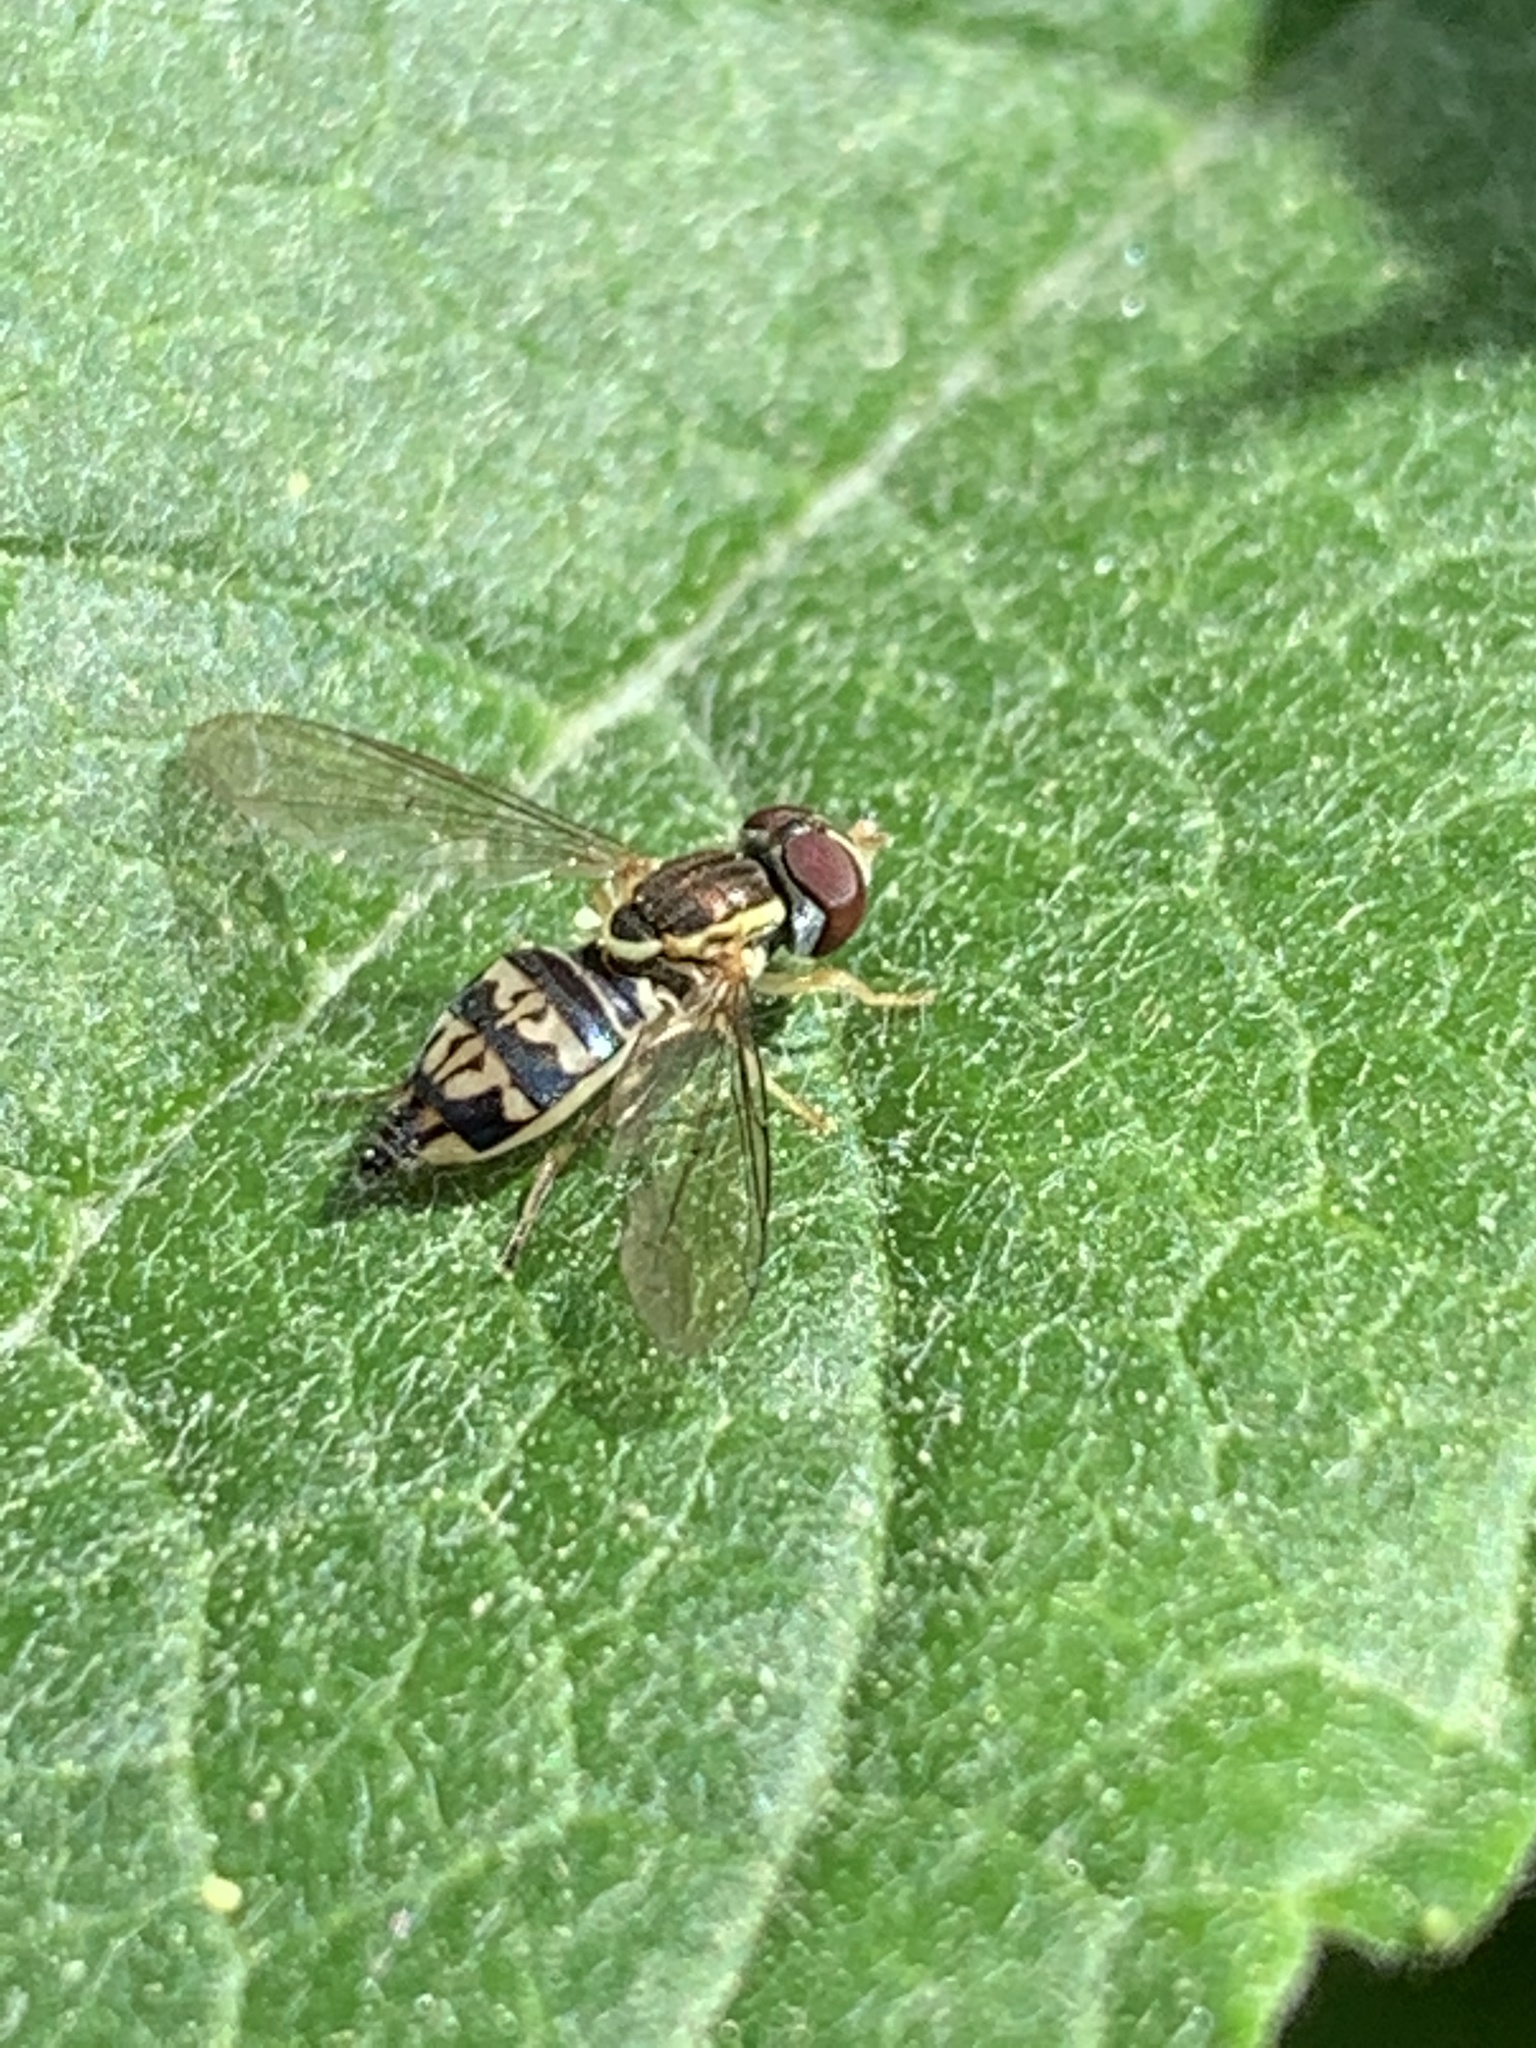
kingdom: Animalia
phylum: Arthropoda
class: Insecta
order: Diptera
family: Syrphidae
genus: Toxomerus
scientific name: Toxomerus geminatus
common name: Eastern calligrapher
